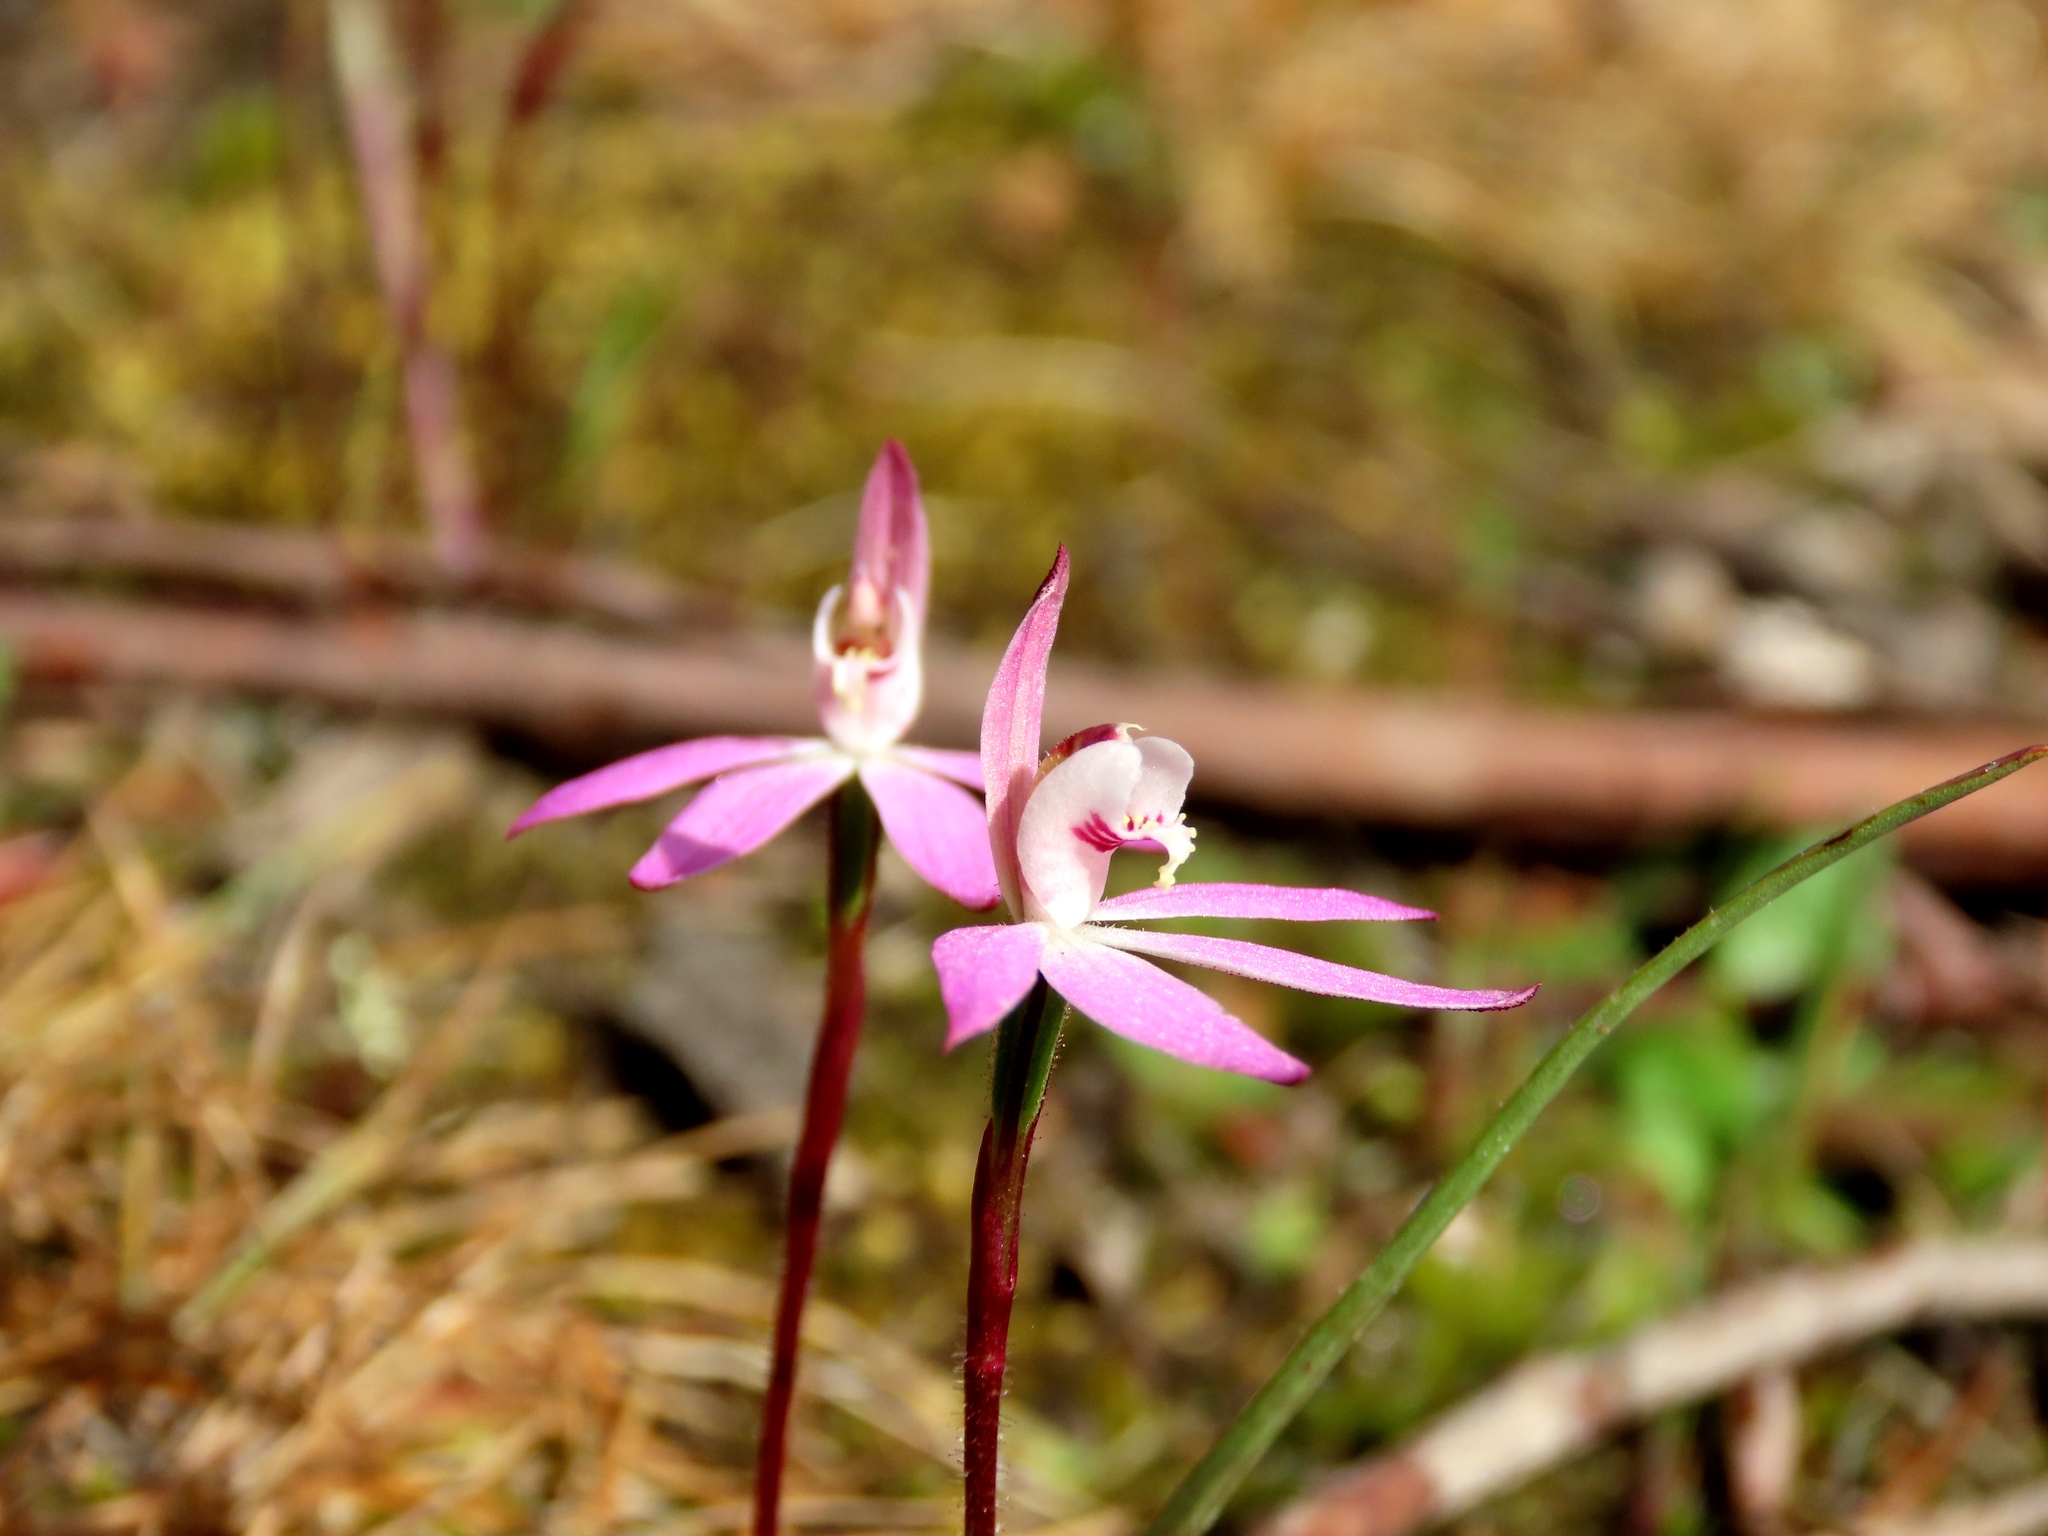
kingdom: Plantae
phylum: Tracheophyta
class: Liliopsida
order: Asparagales
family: Orchidaceae
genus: Caladenia
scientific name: Caladenia fuscata
